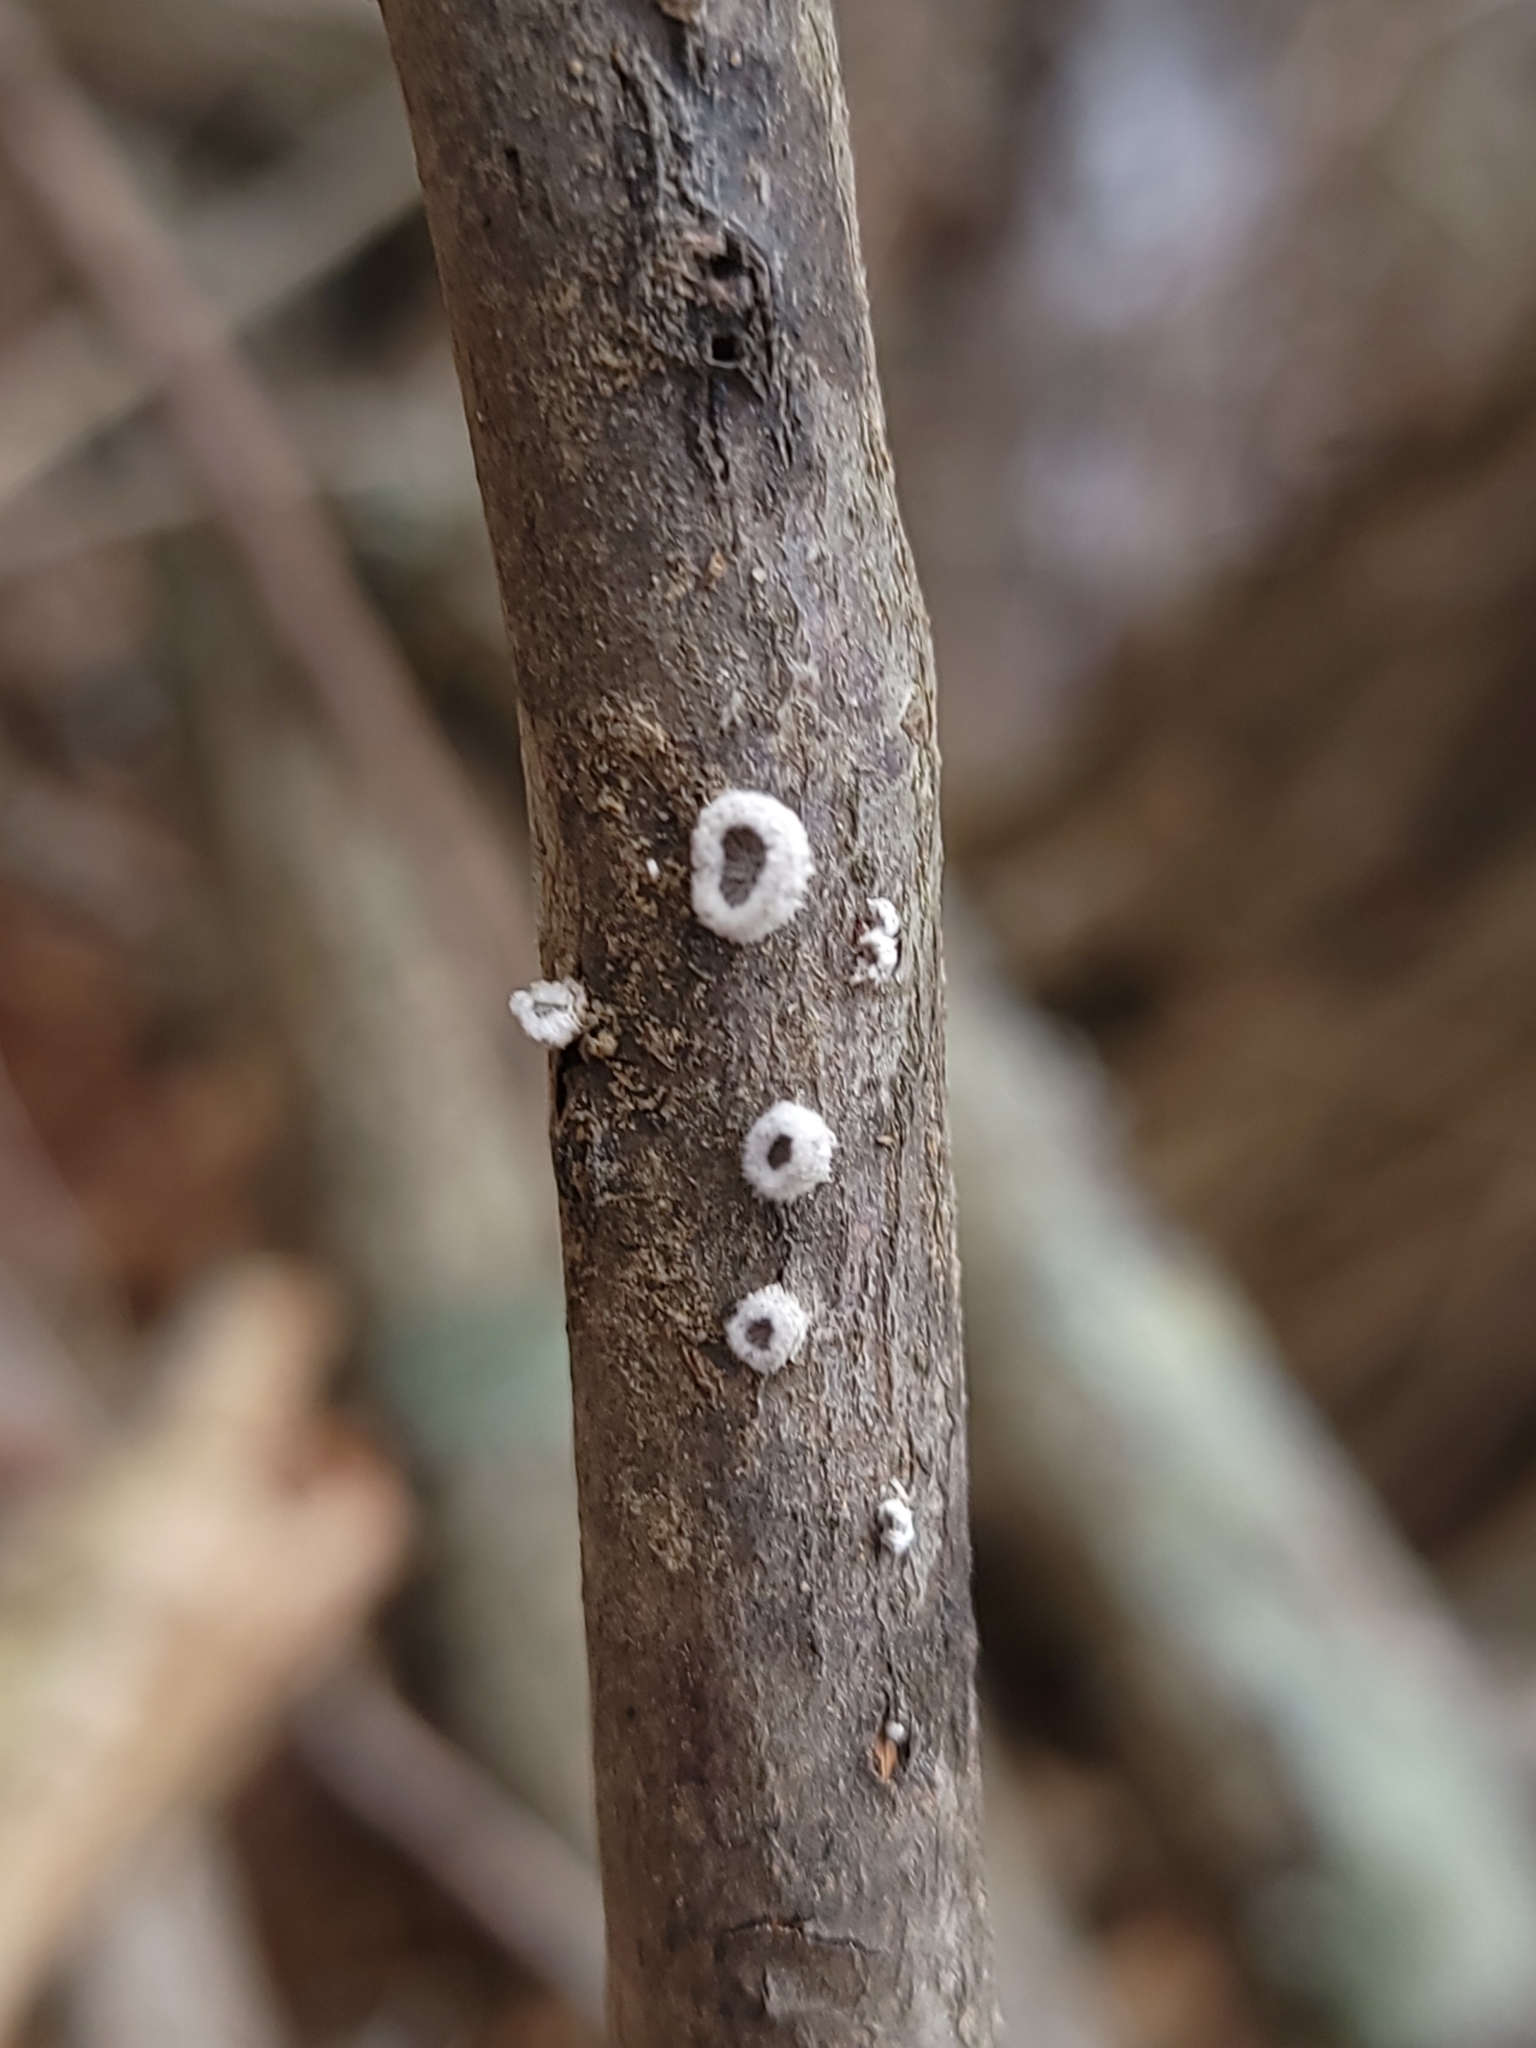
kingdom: Fungi
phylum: Basidiomycota
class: Agaricomycetes
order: Agaricales
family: Schizophyllaceae
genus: Schizophyllum
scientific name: Schizophyllum commune
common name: Common porecrust
